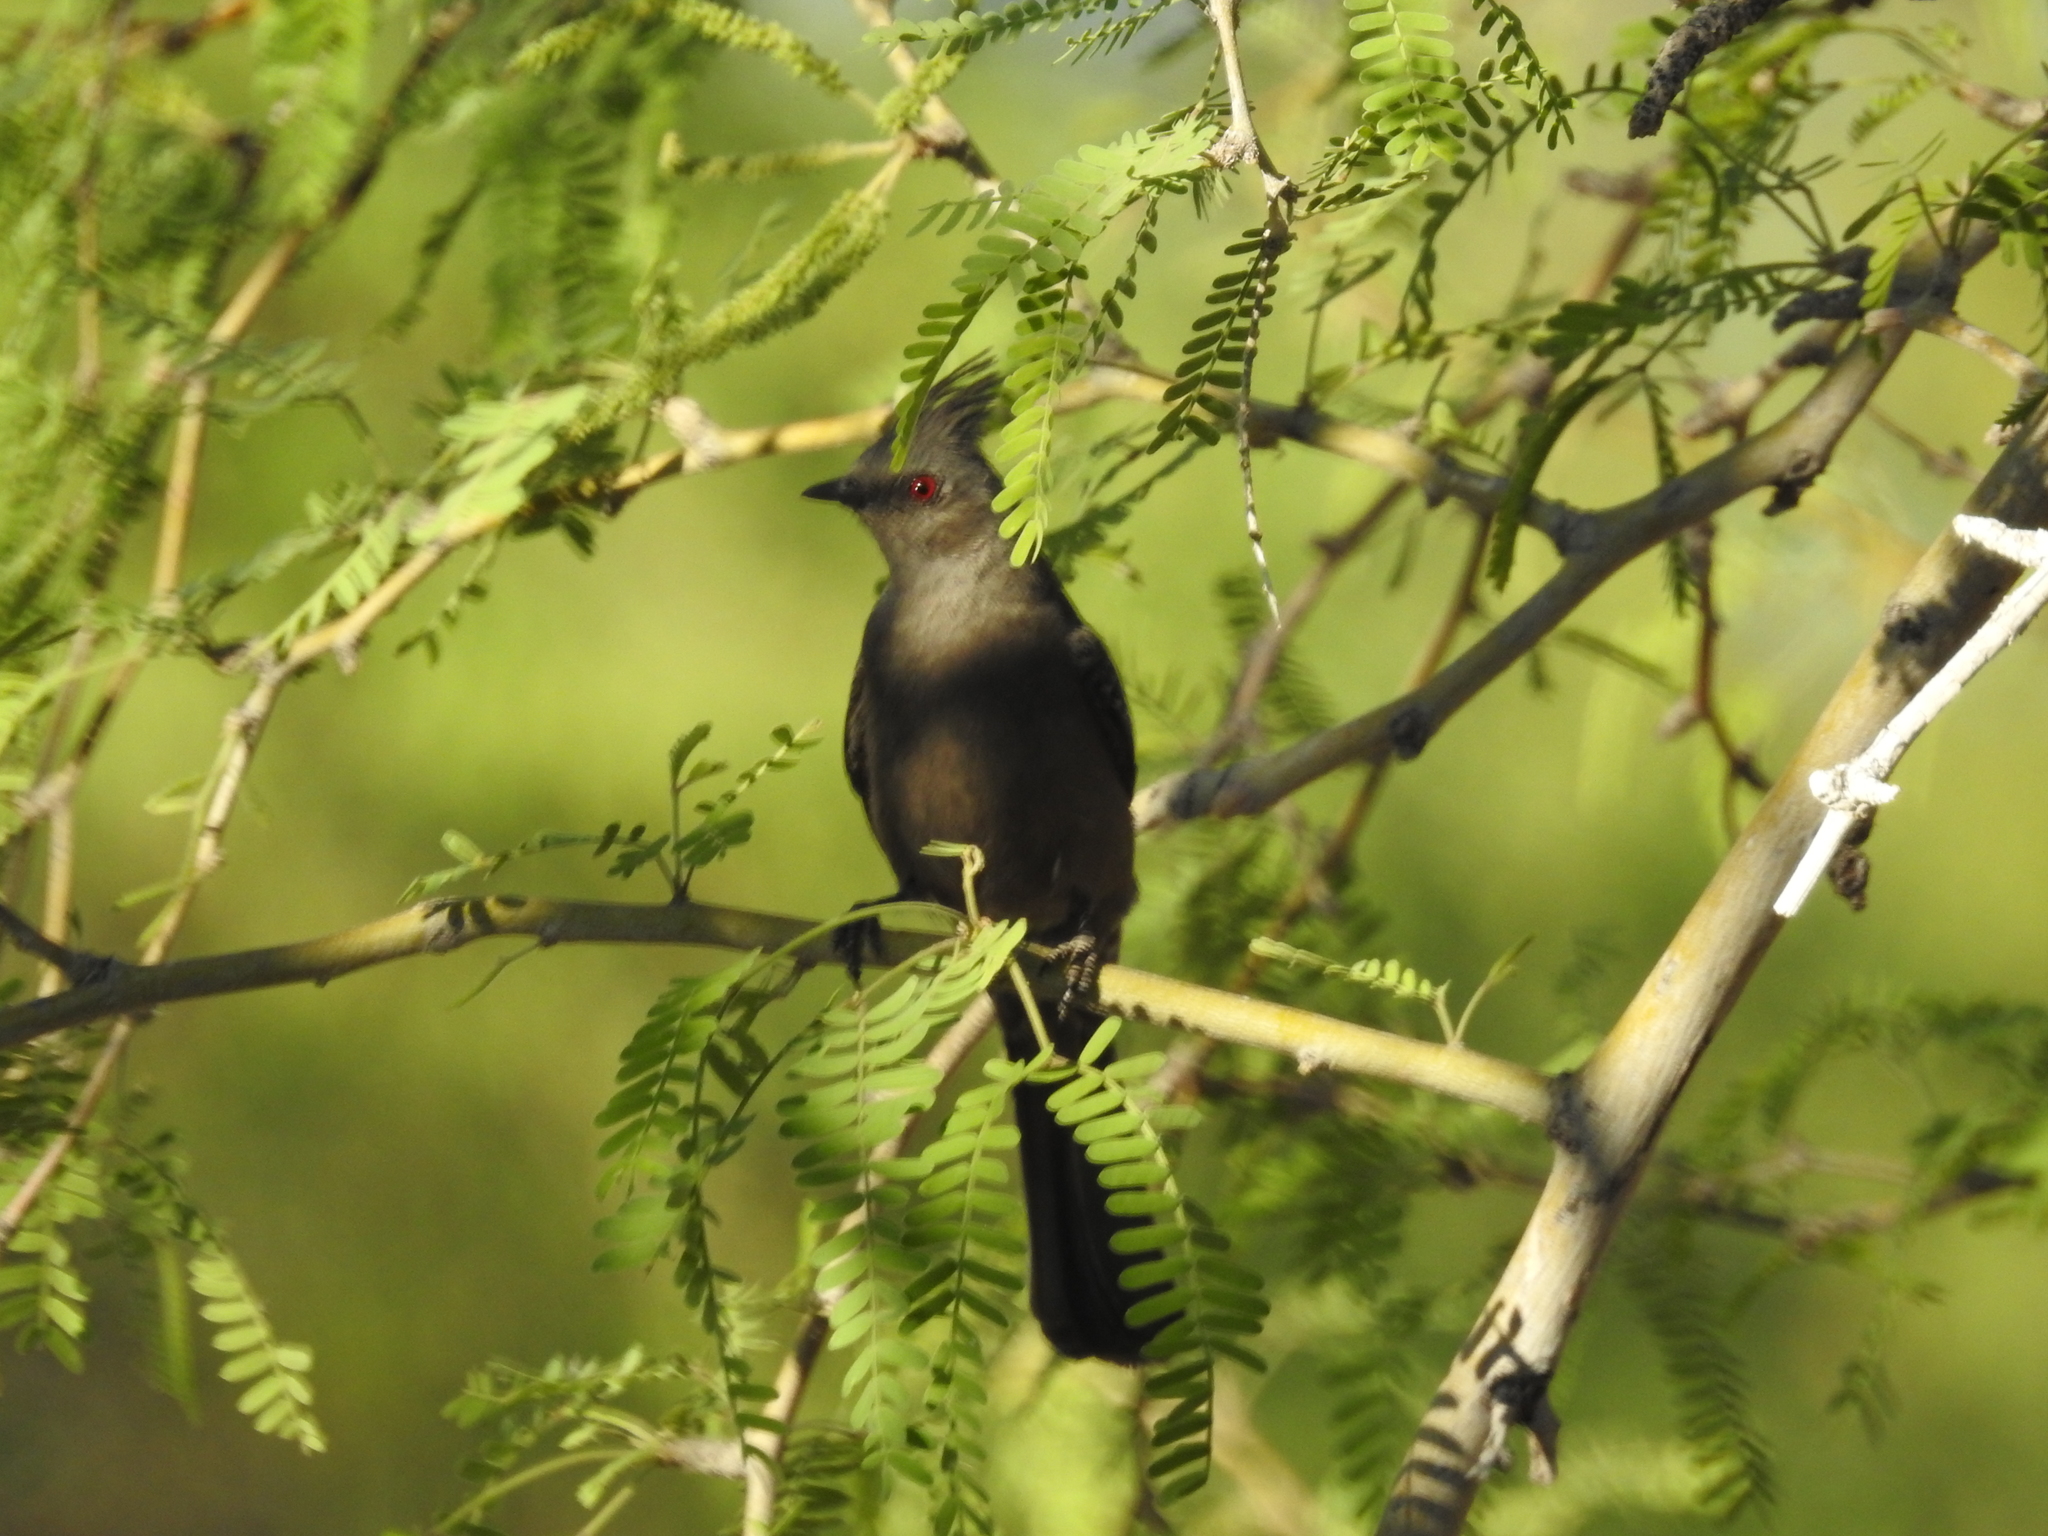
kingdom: Animalia
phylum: Chordata
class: Aves
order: Passeriformes
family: Ptilogonatidae
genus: Phainopepla
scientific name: Phainopepla nitens
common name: Phainopepla
